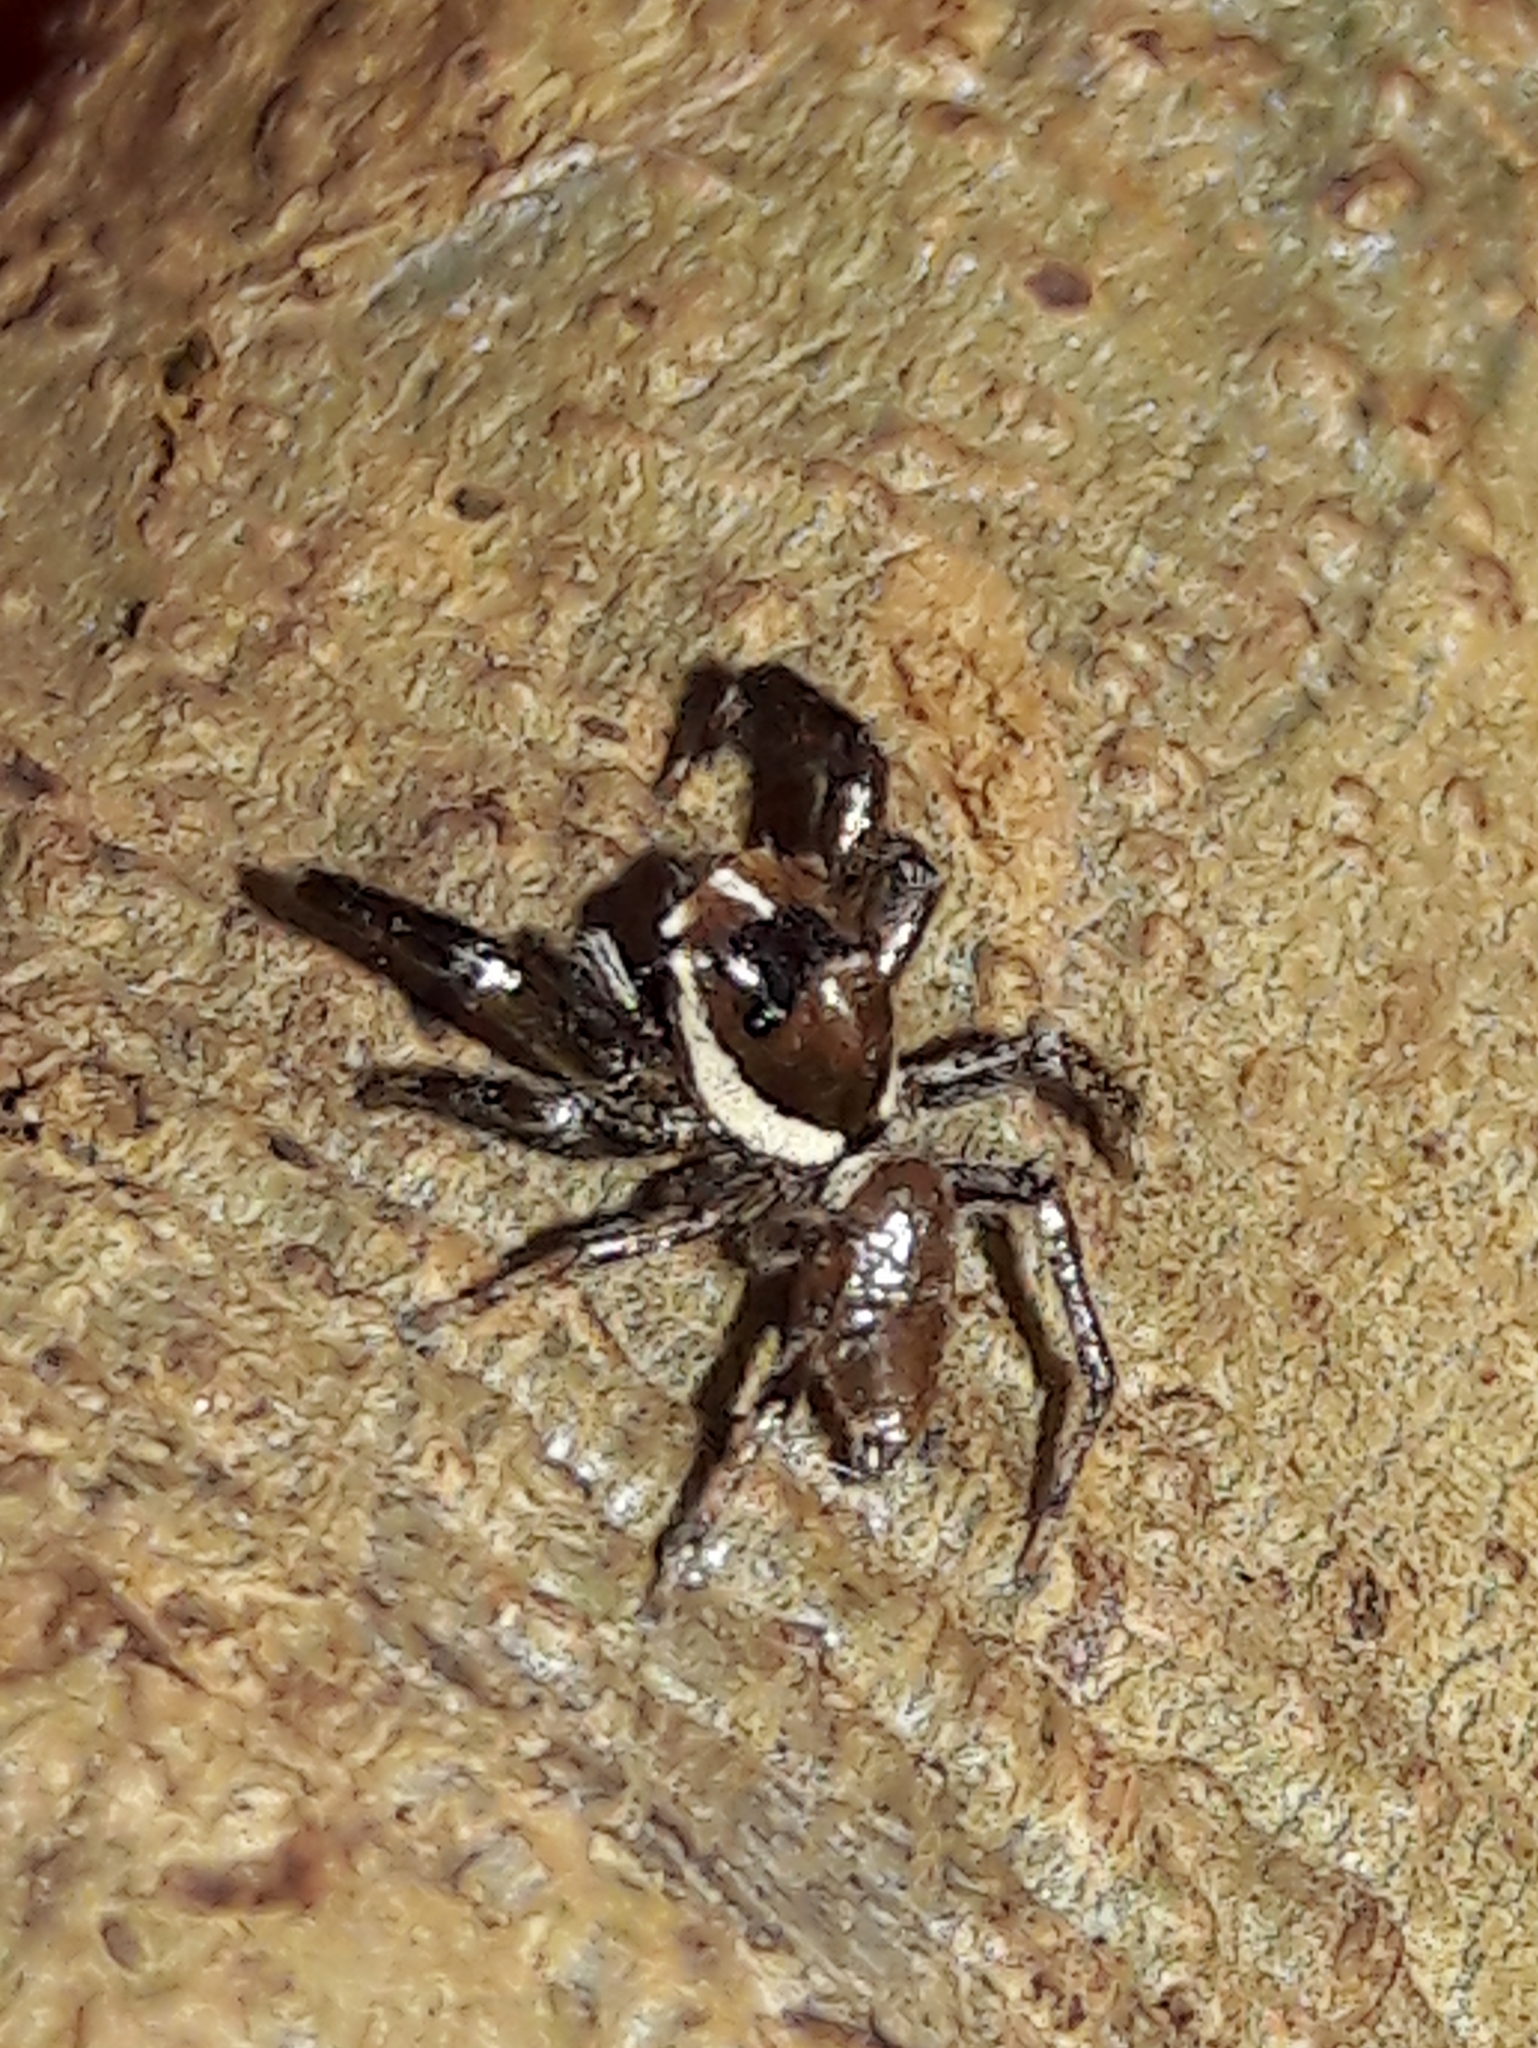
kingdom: Animalia
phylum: Arthropoda
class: Arachnida
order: Araneae
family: Salticidae
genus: Philira
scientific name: Philira micans
